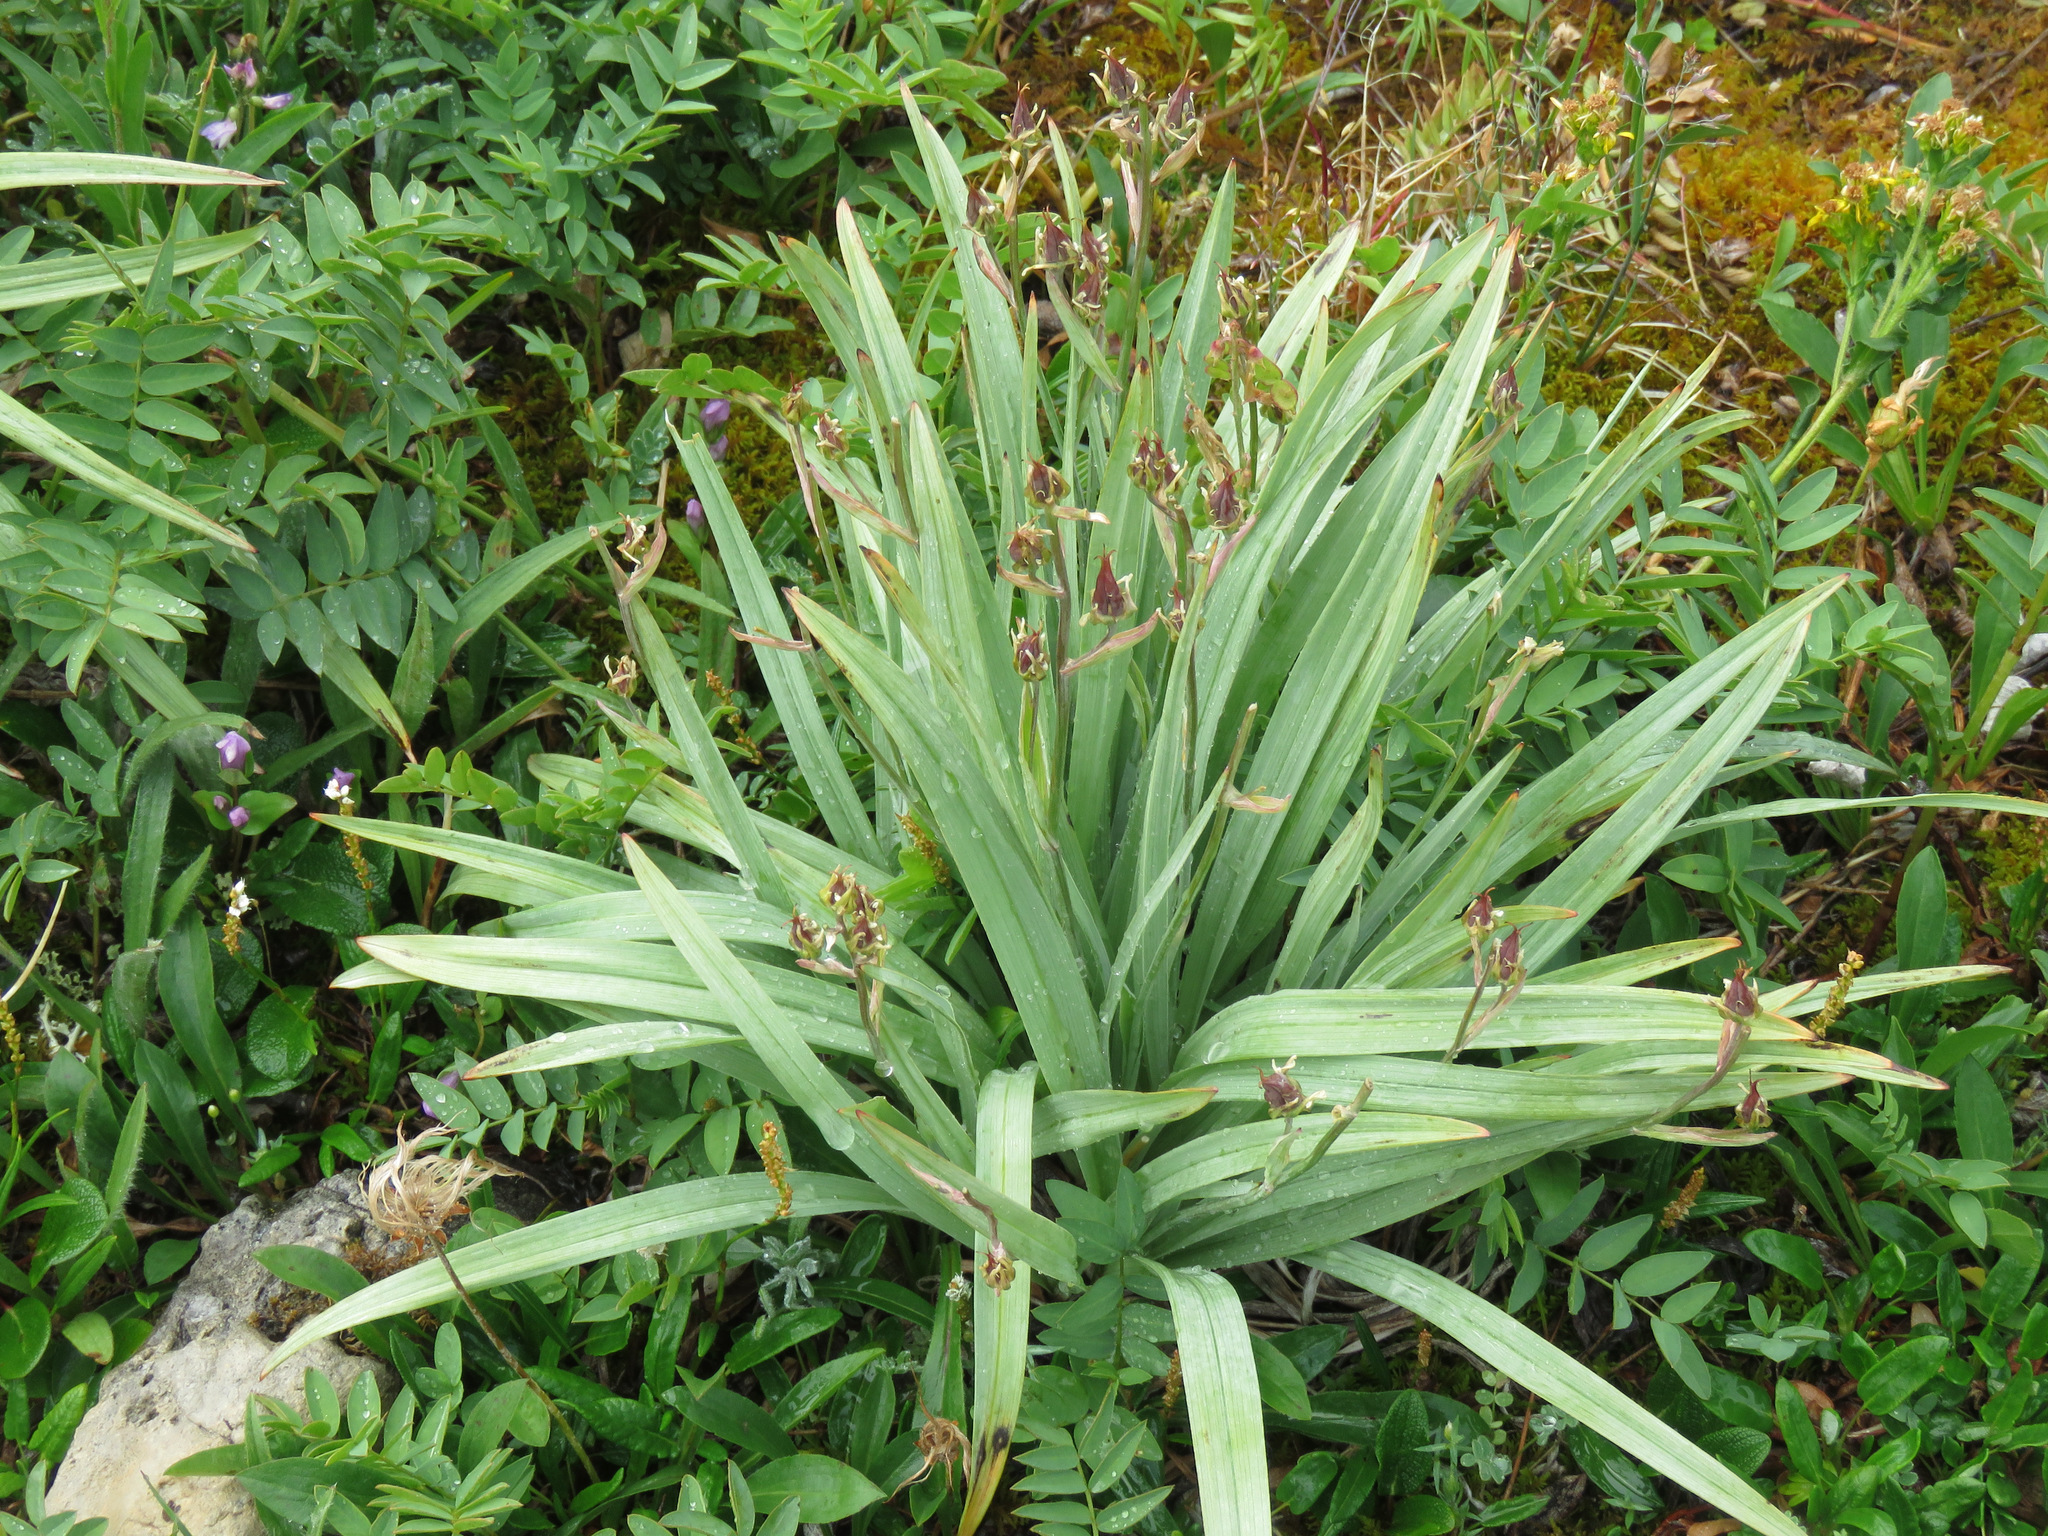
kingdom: Plantae
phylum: Tracheophyta
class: Liliopsida
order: Liliales
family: Melanthiaceae
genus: Anticlea
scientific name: Anticlea elegans
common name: Mountain death camas
